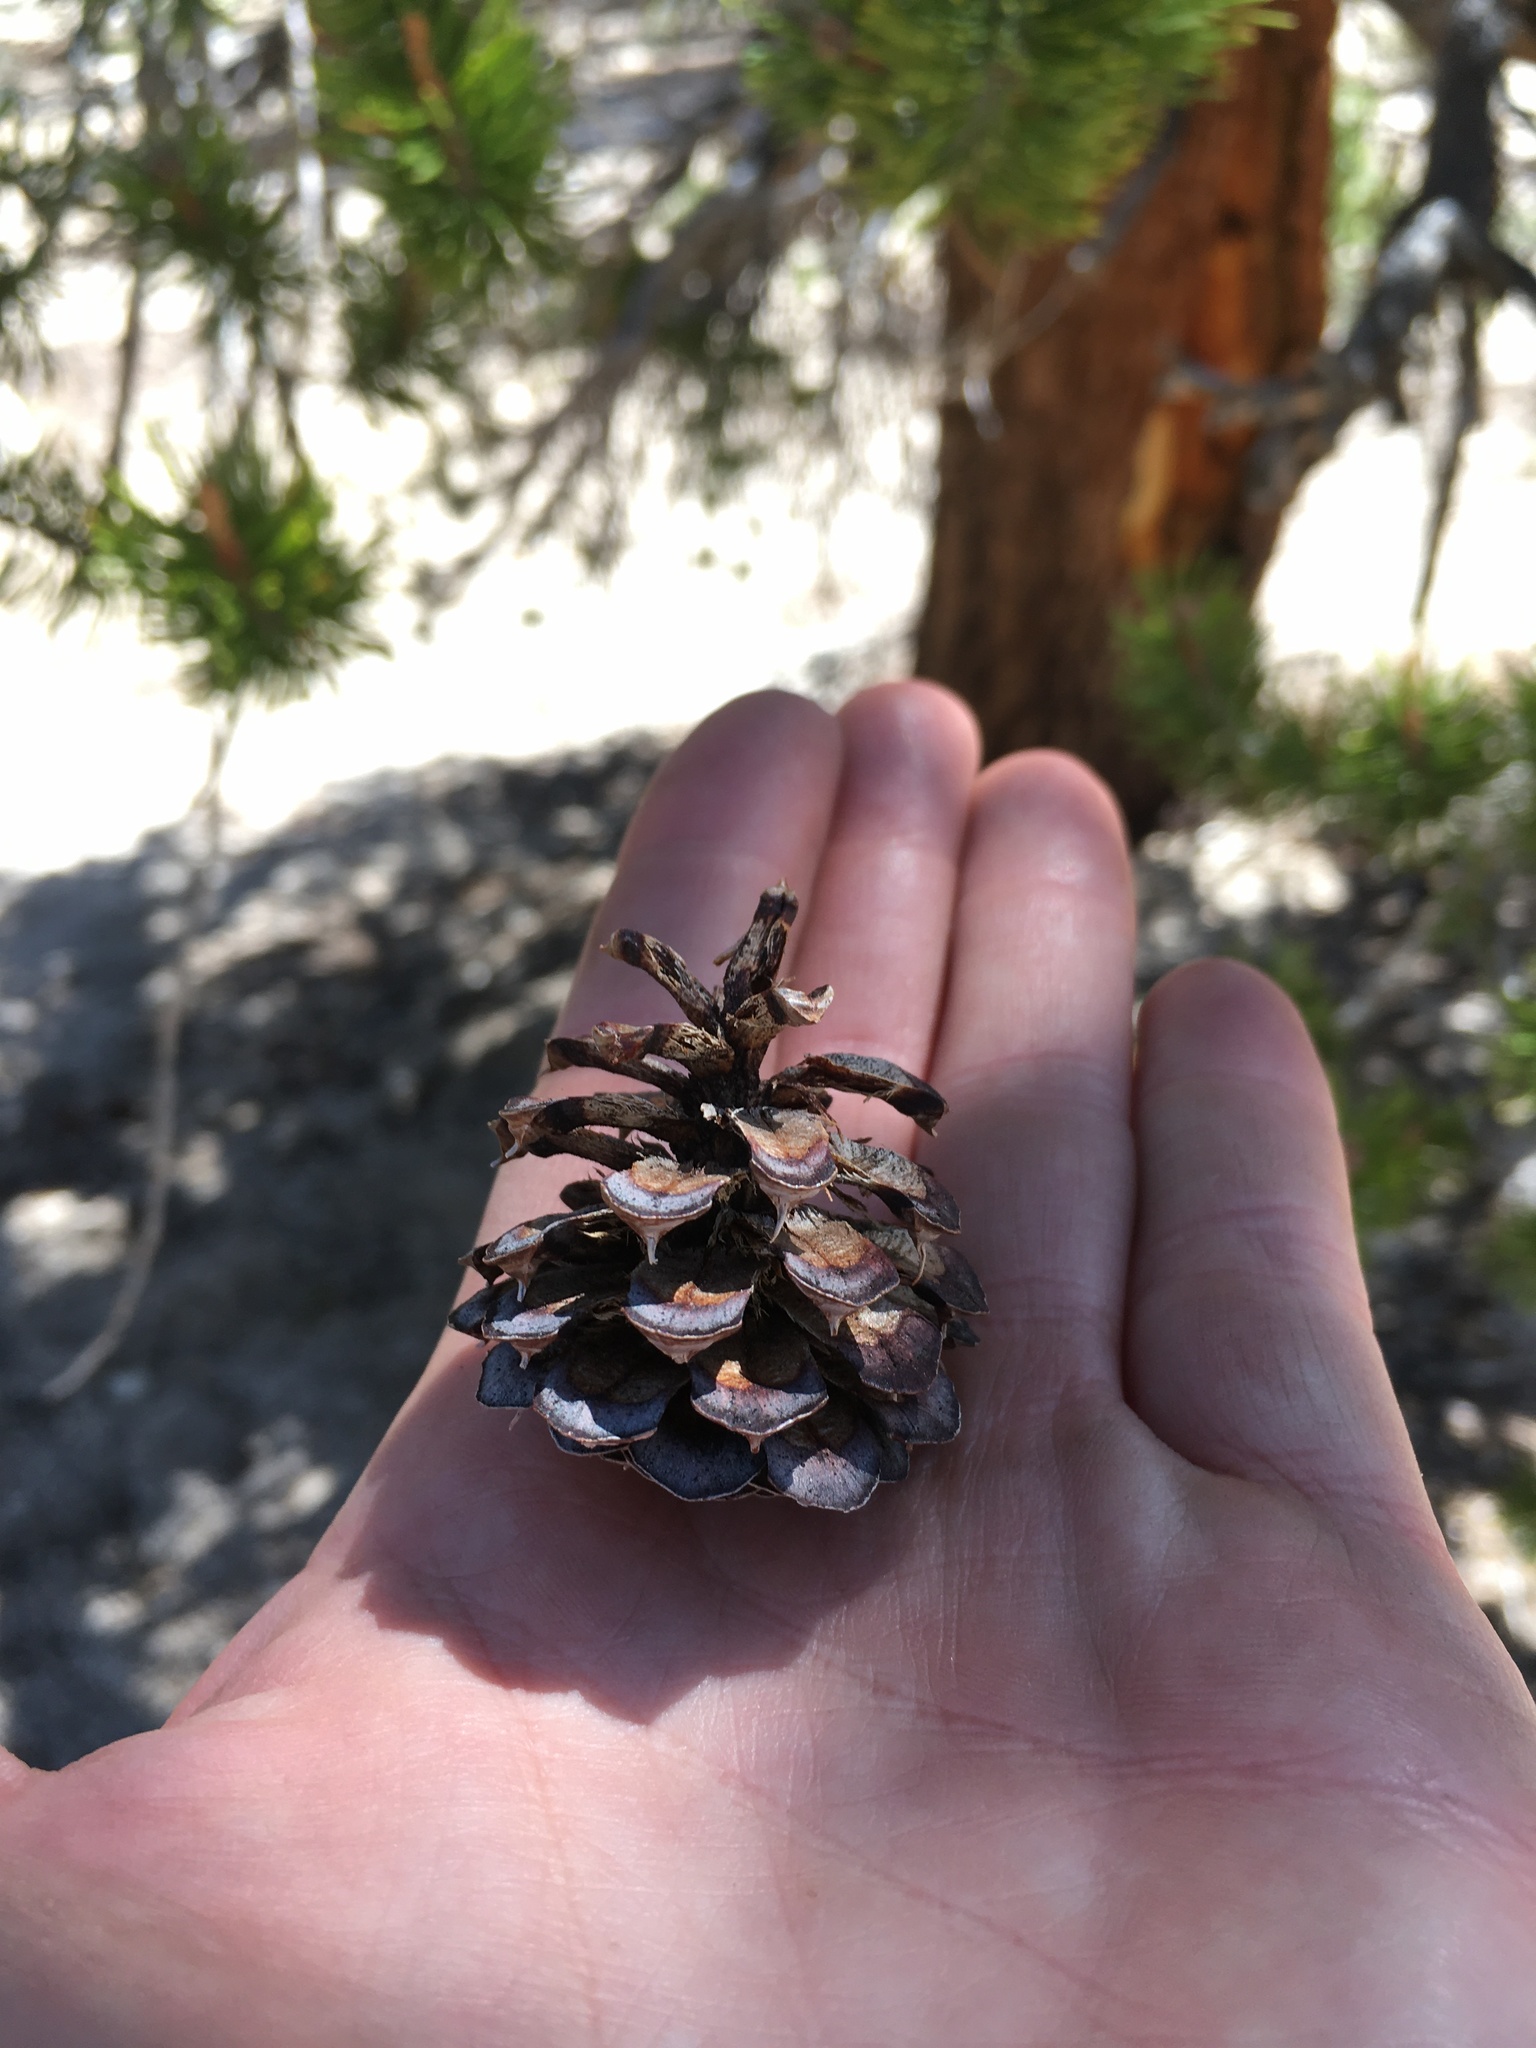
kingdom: Plantae
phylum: Tracheophyta
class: Pinopsida
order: Pinales
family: Pinaceae
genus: Pinus
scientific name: Pinus contorta
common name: Lodgepole pine
